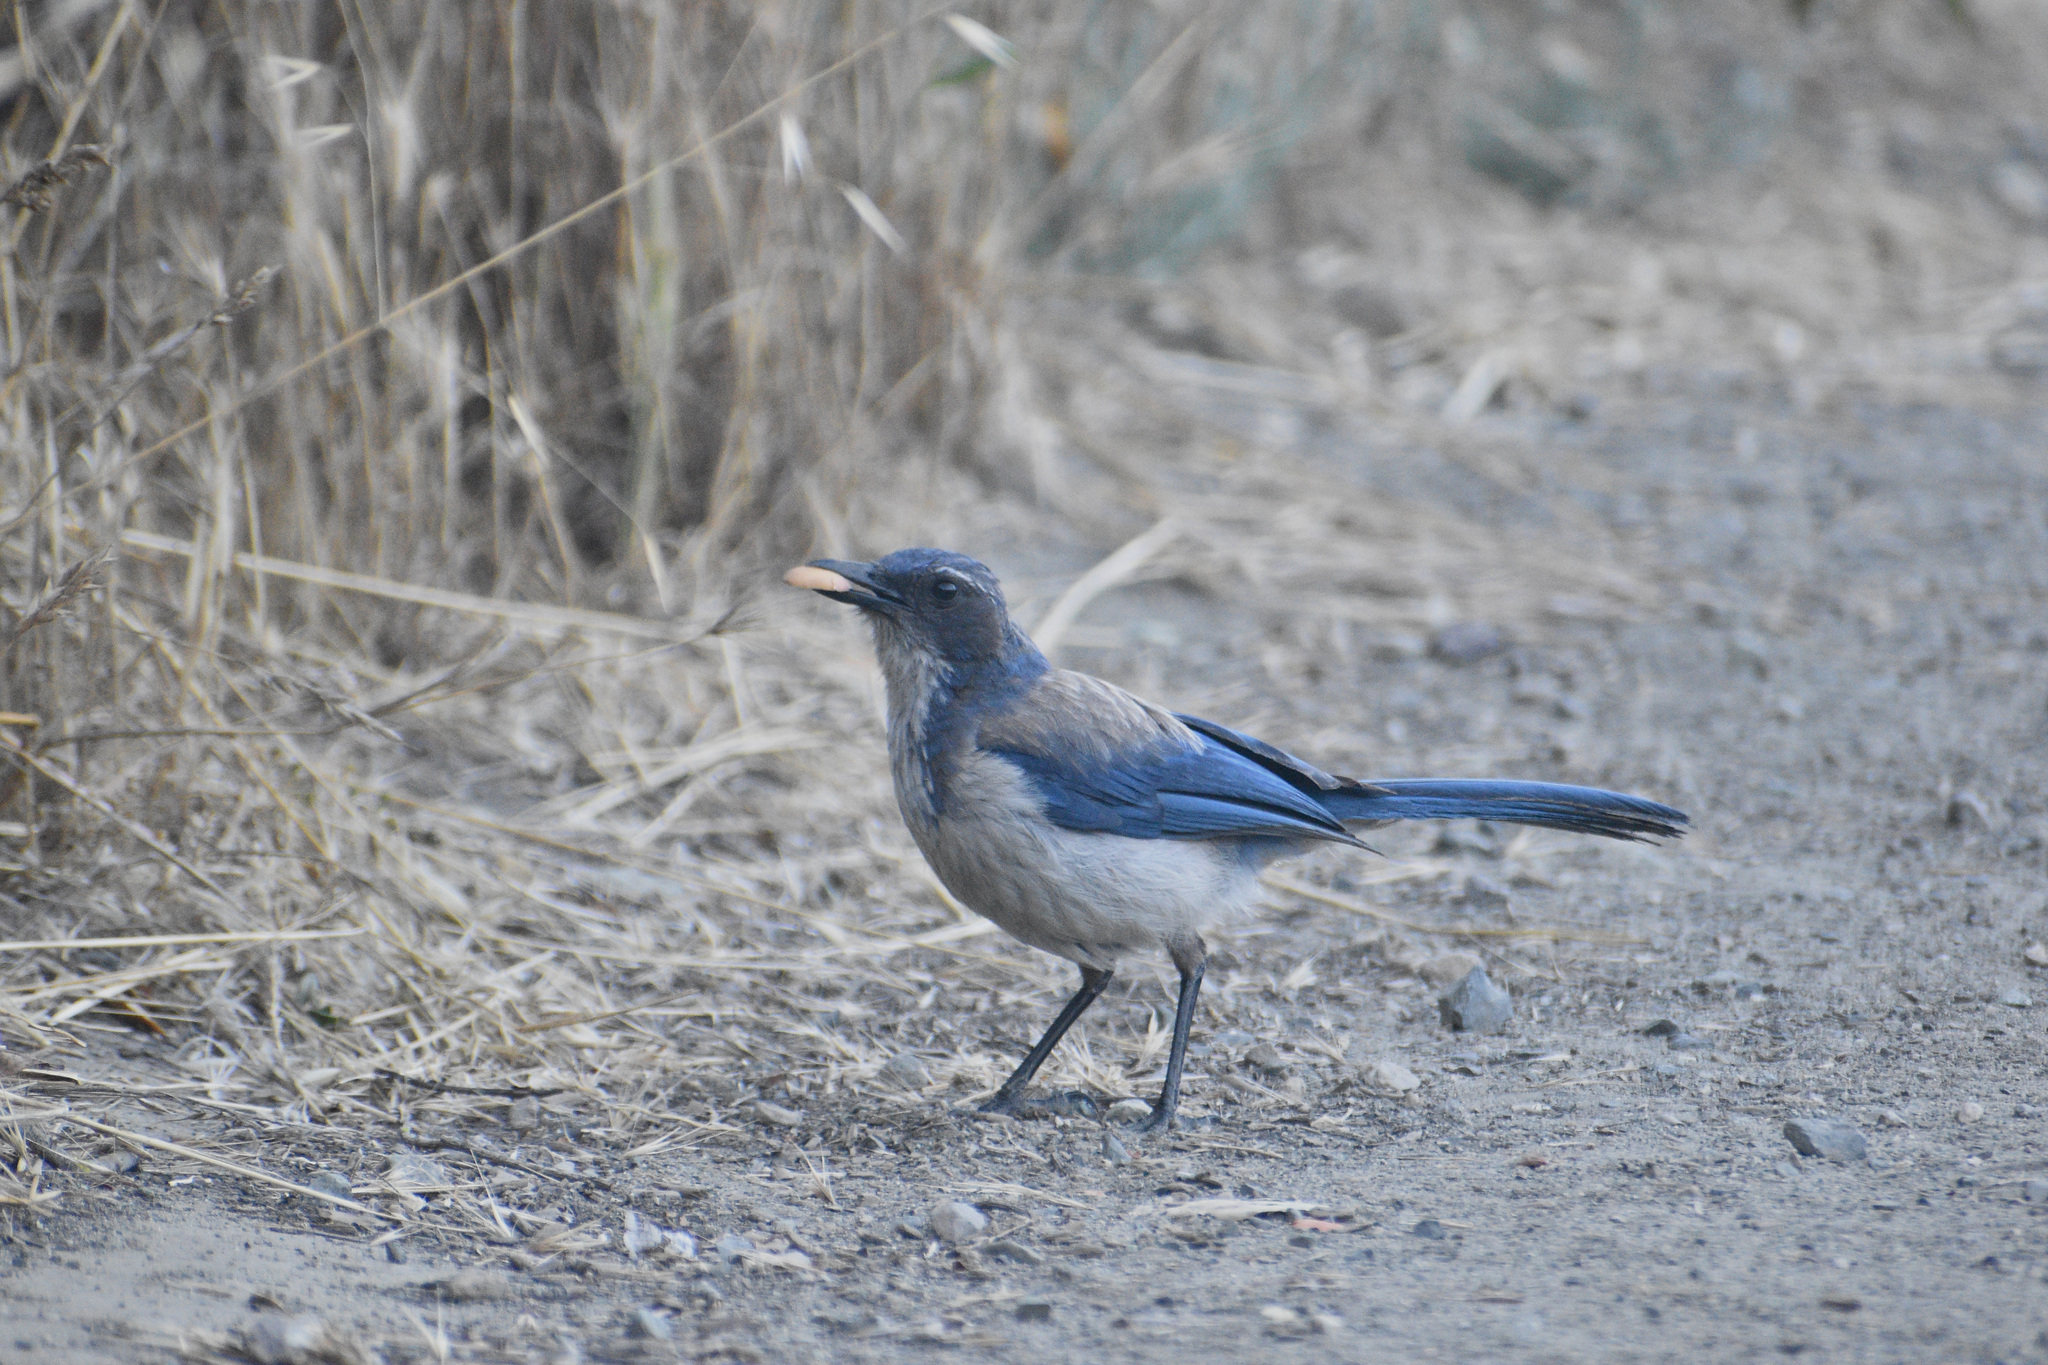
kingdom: Animalia
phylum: Chordata
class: Aves
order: Passeriformes
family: Corvidae
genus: Aphelocoma
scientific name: Aphelocoma californica
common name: California scrub-jay
